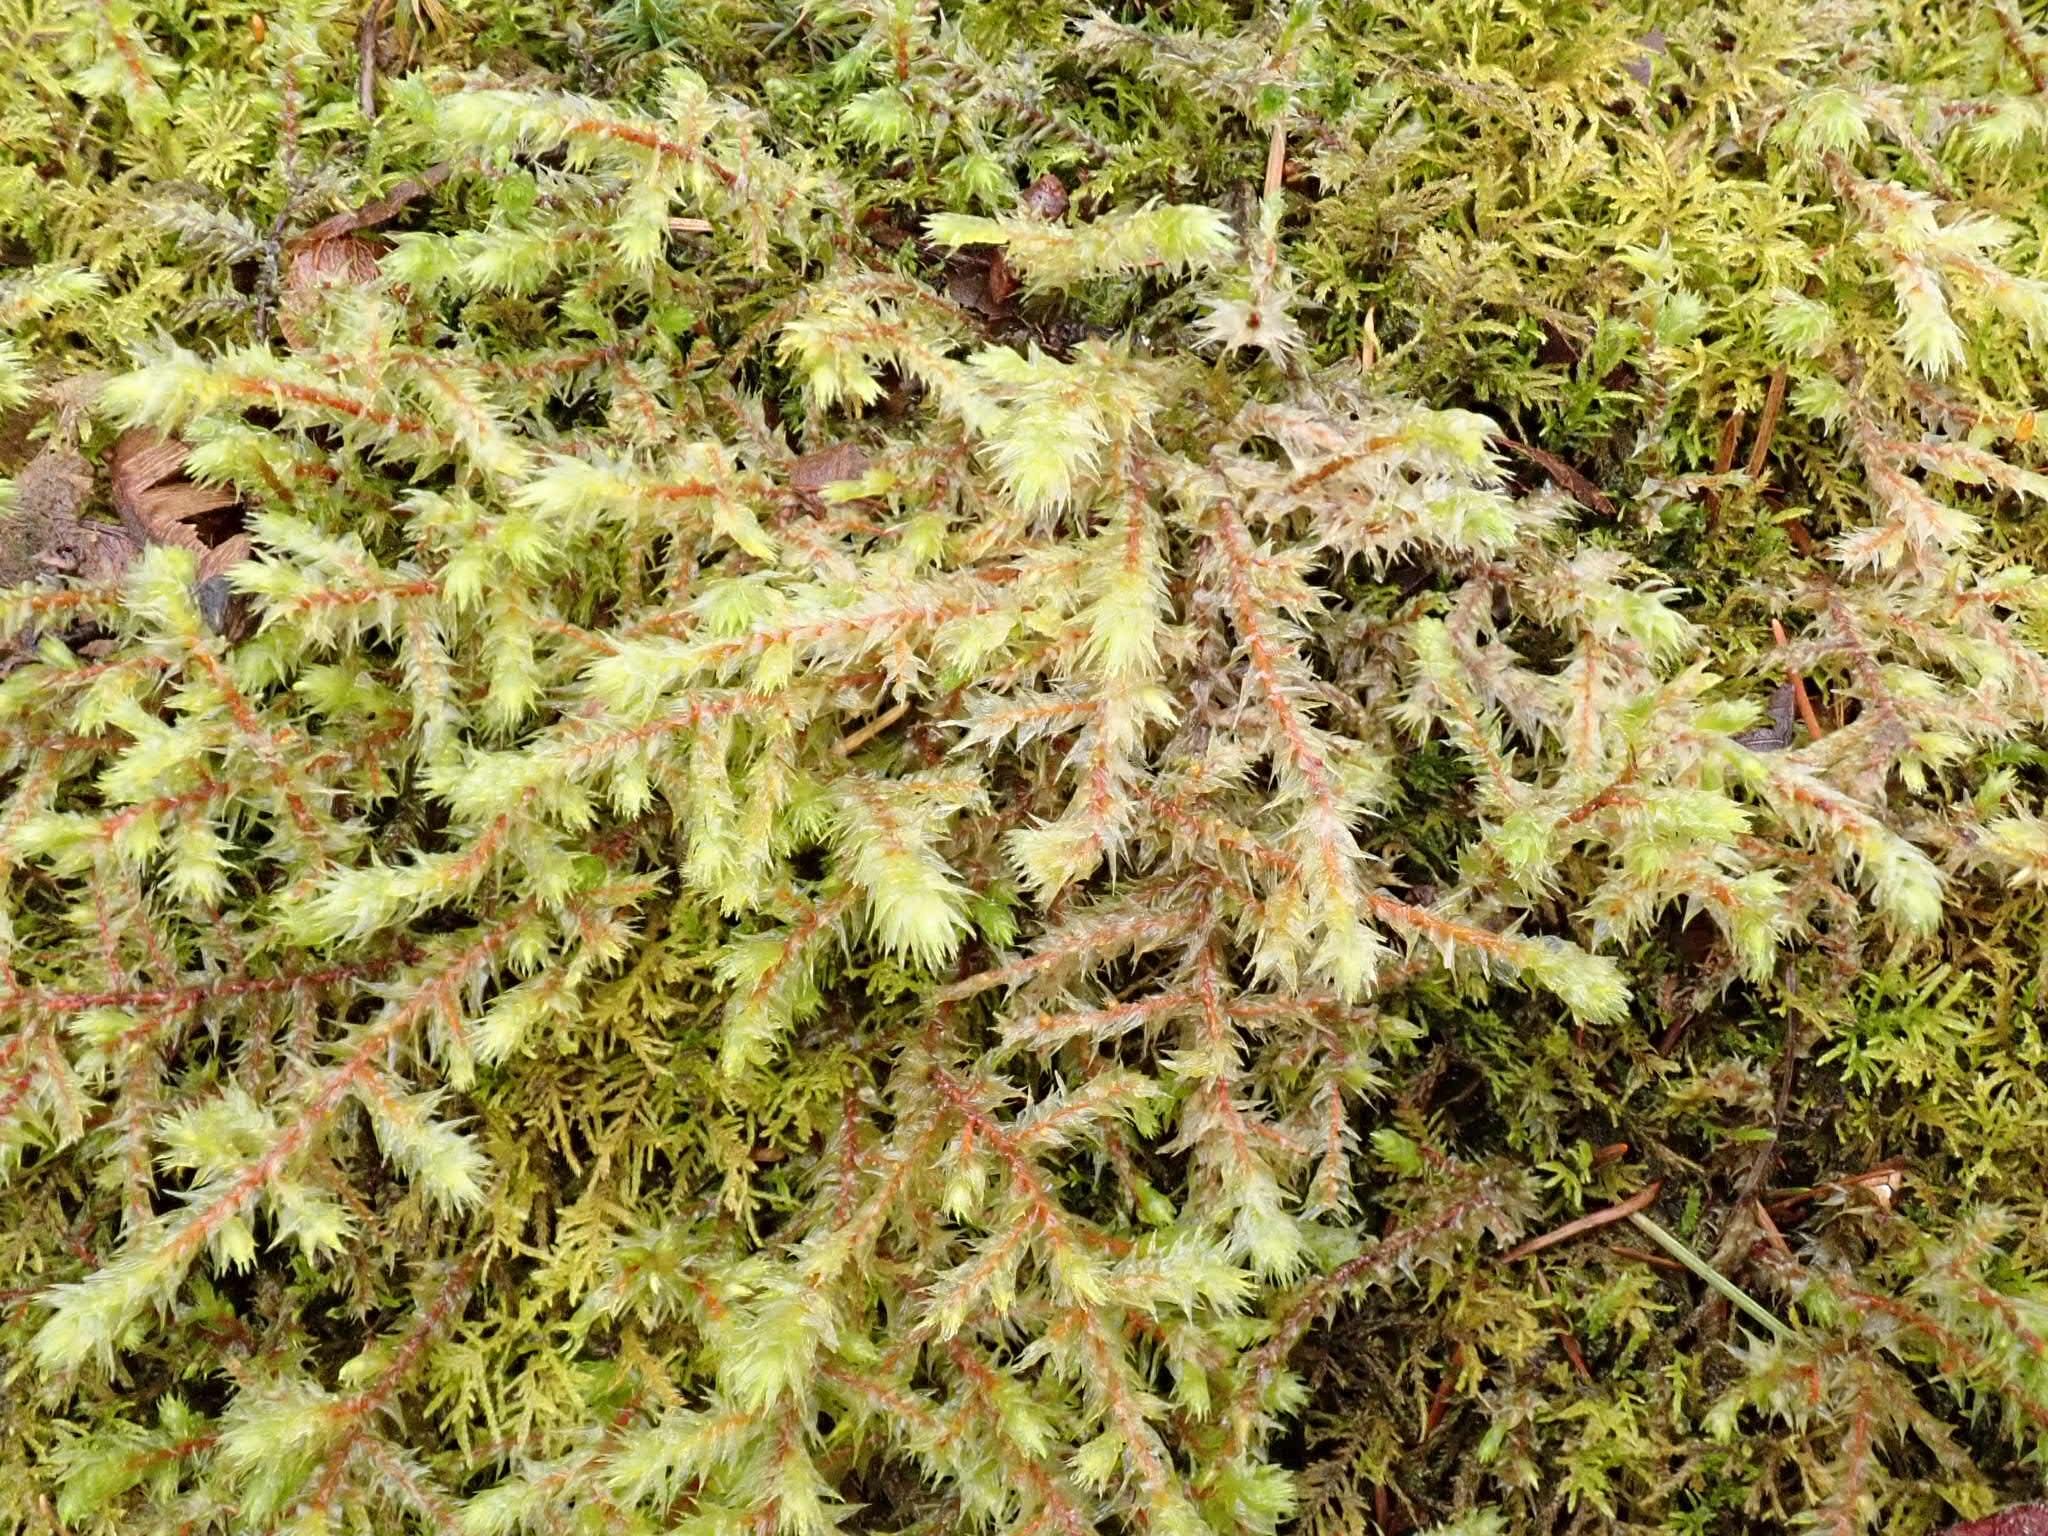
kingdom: Plantae
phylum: Bryophyta
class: Bryopsida
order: Hypnales
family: Hylocomiaceae
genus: Hylocomiadelphus
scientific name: Hylocomiadelphus triquetrus
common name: Rough goose neck moss
